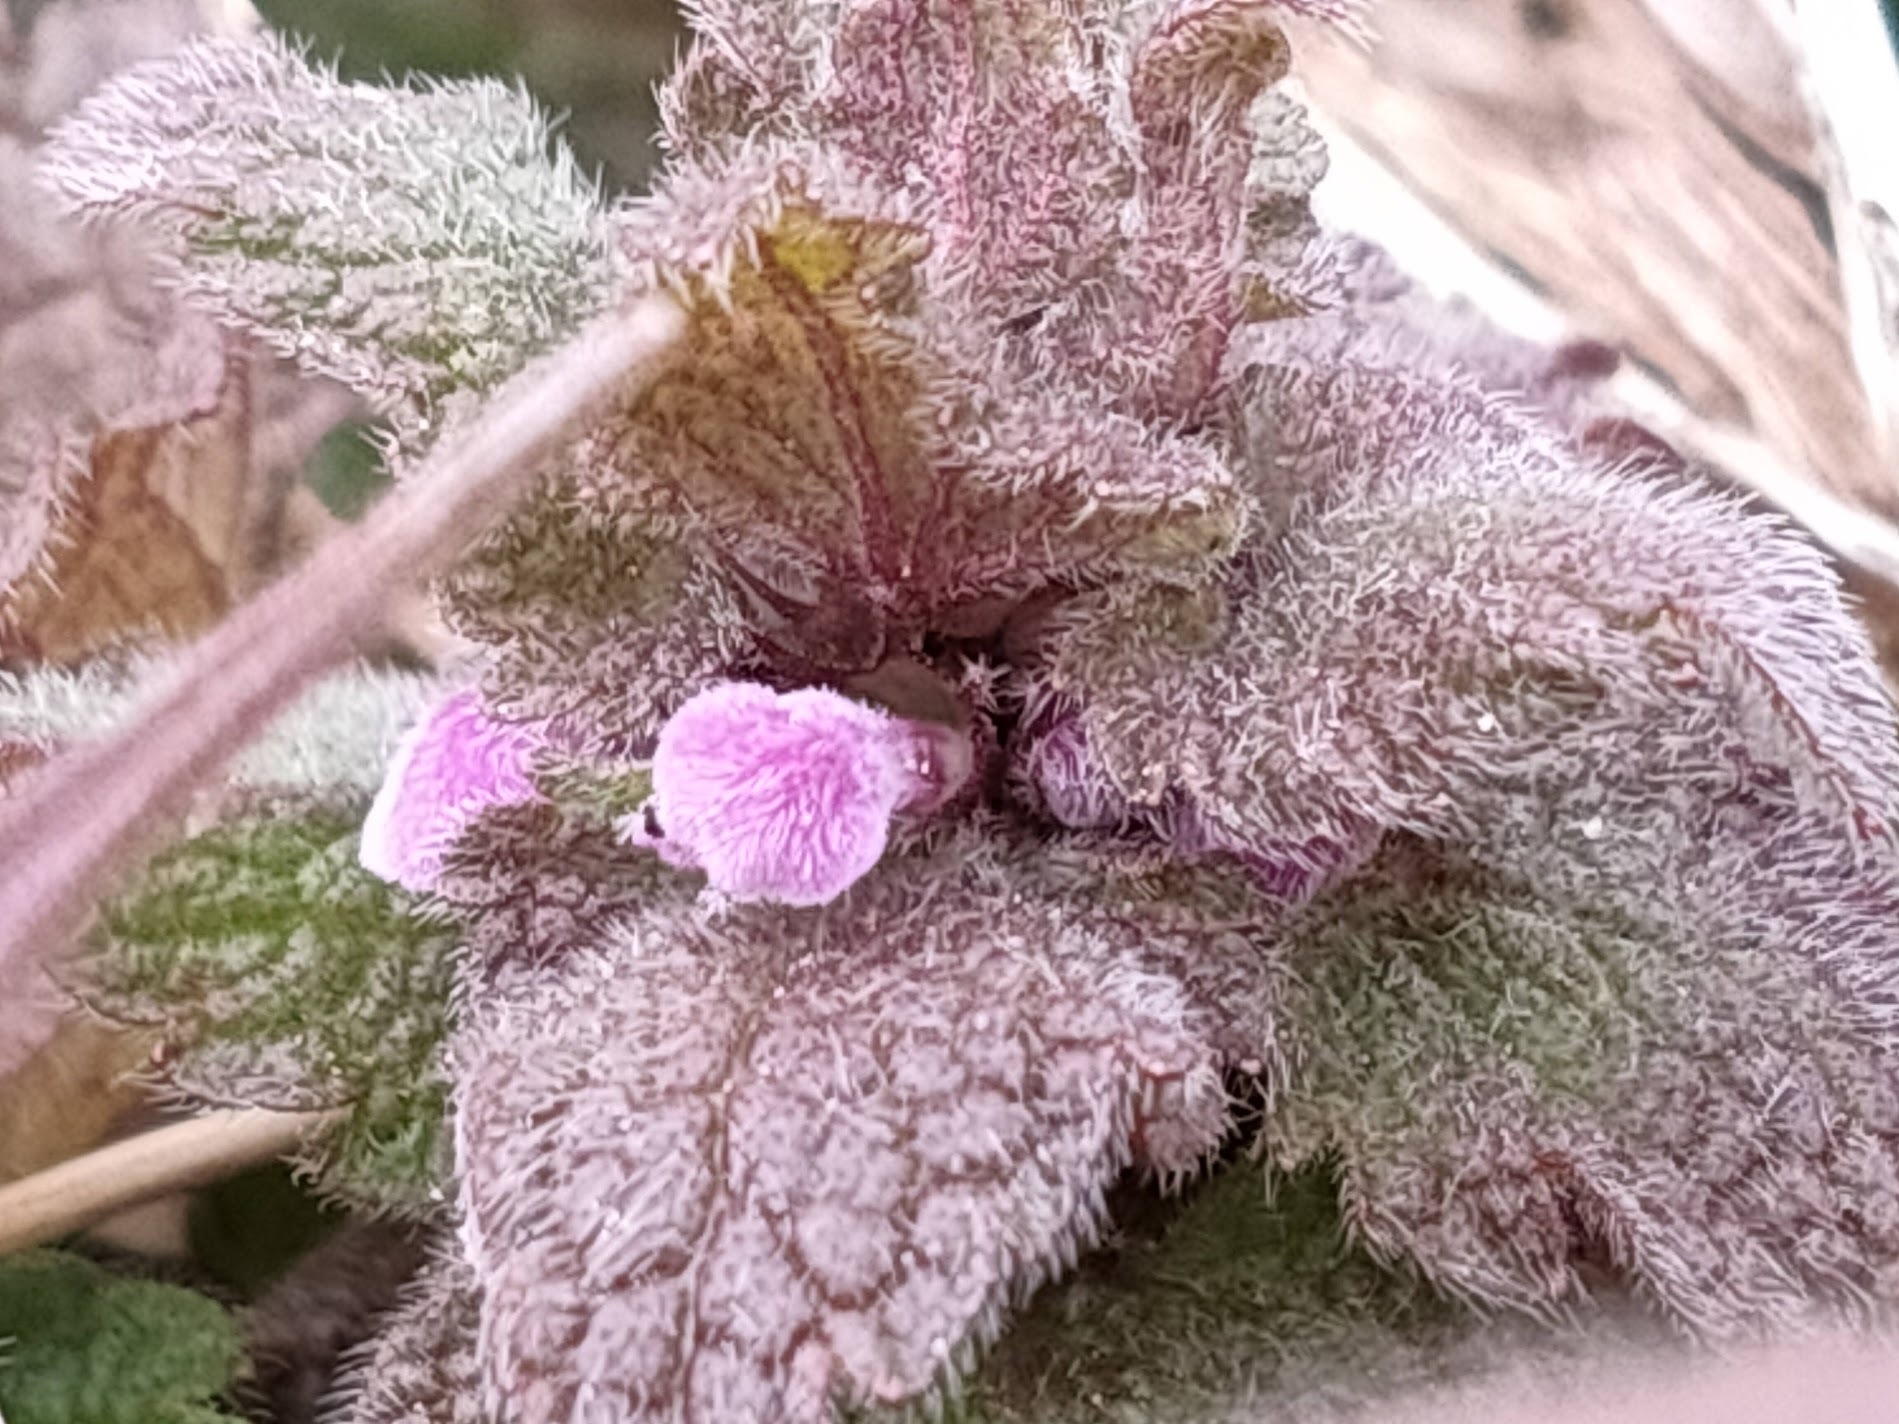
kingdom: Plantae
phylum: Tracheophyta
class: Magnoliopsida
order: Lamiales
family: Lamiaceae
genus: Lamium
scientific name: Lamium purpureum
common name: Red dead-nettle
